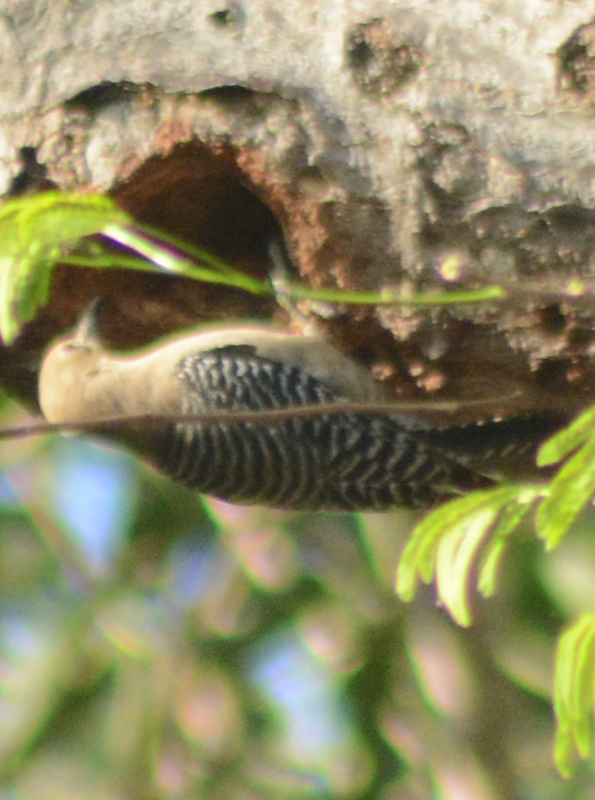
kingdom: Animalia
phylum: Chordata
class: Aves
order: Piciformes
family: Picidae
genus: Melanerpes
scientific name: Melanerpes uropygialis
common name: Gila woodpecker
